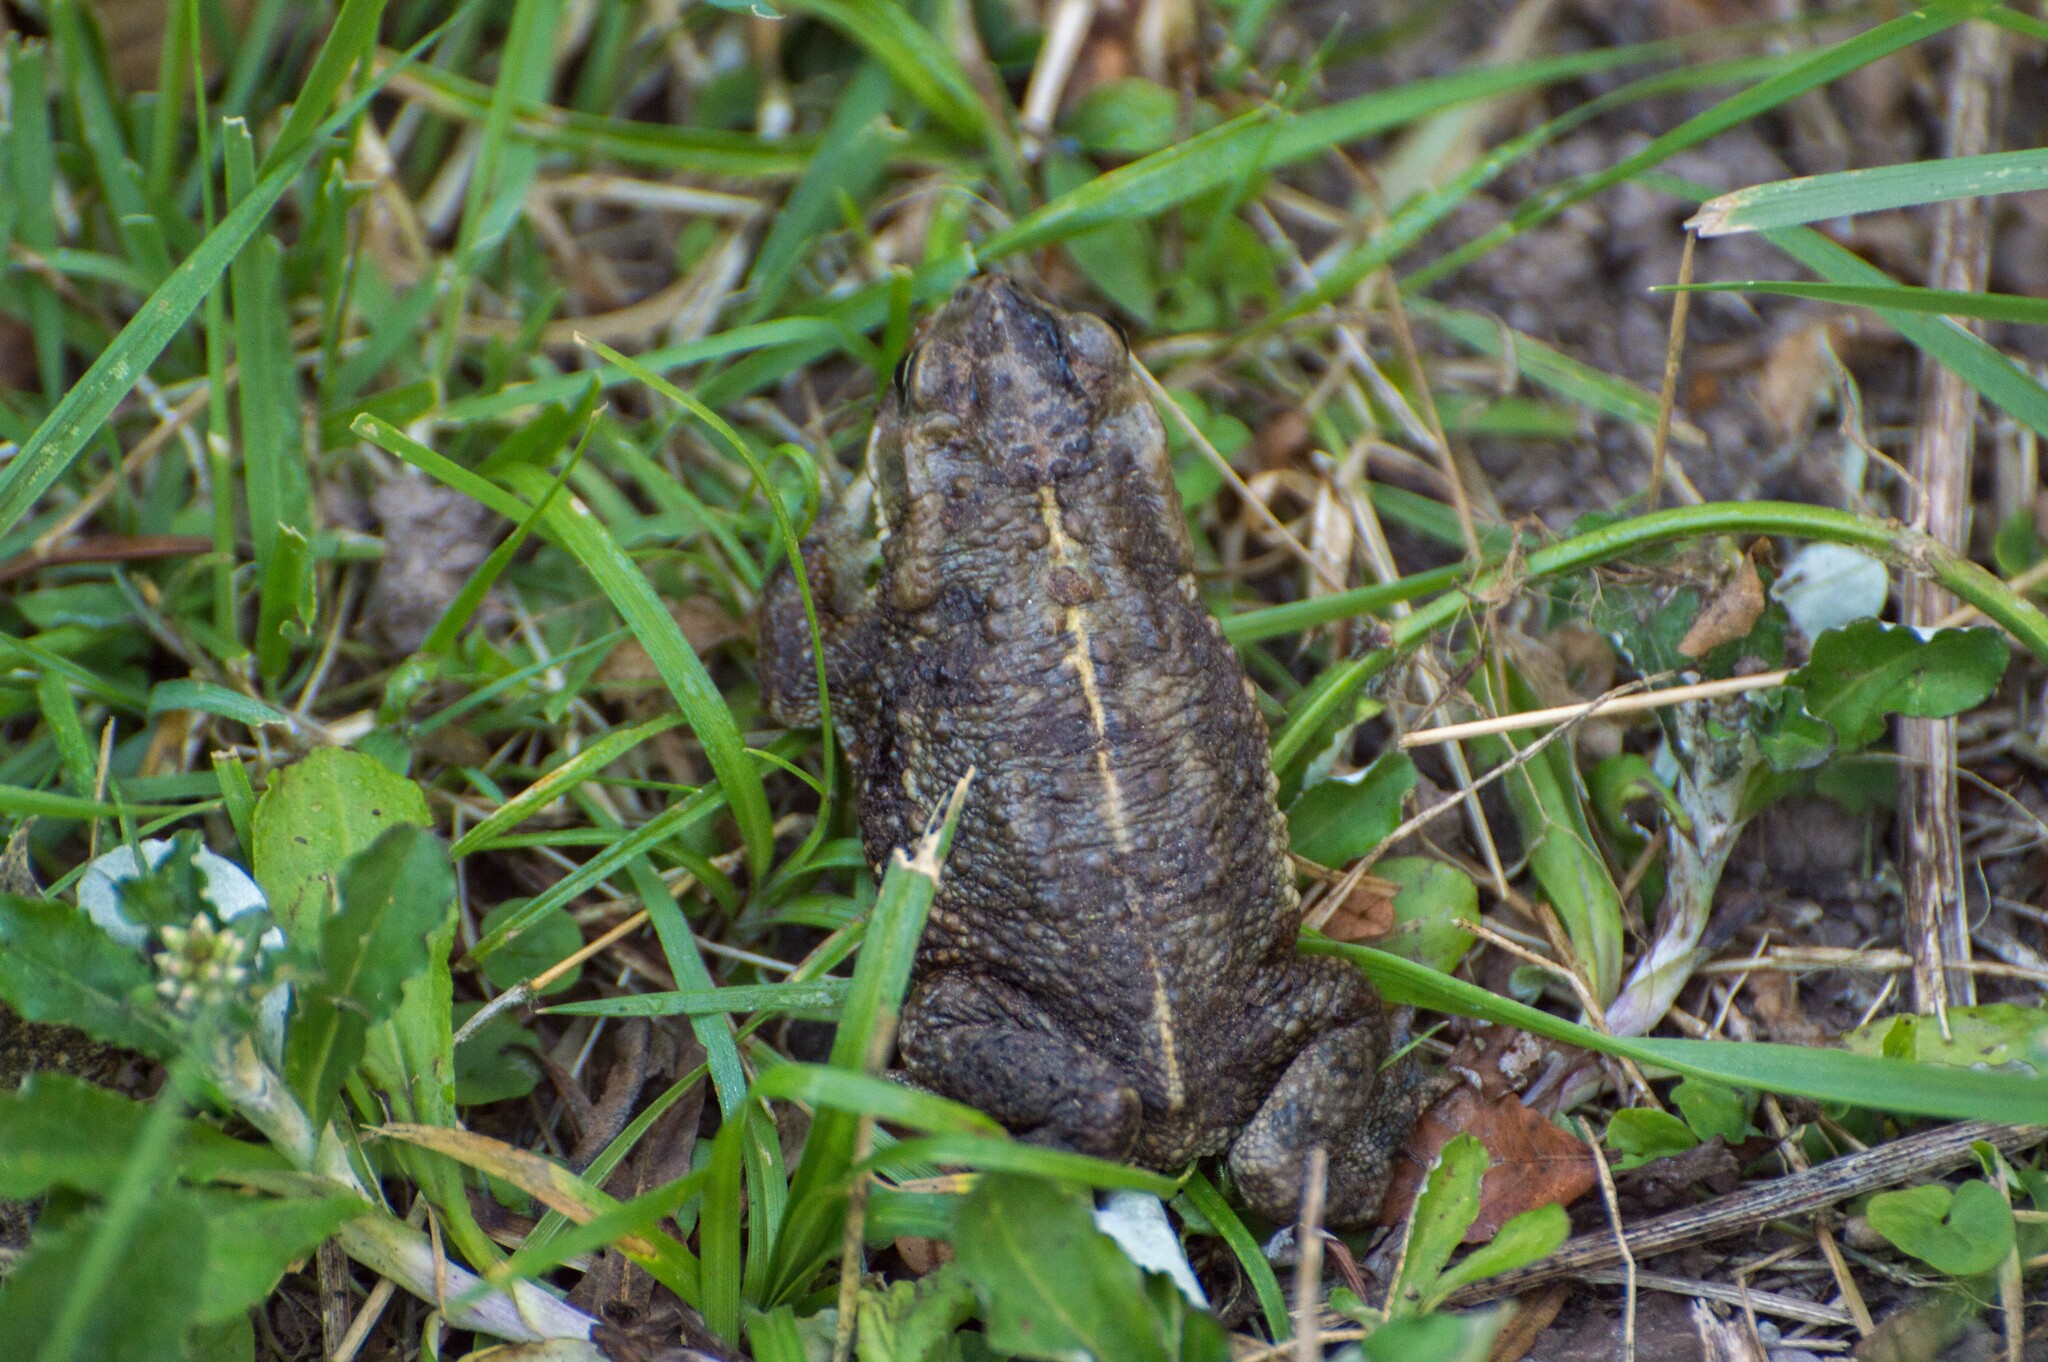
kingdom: Animalia
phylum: Chordata
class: Amphibia
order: Anura
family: Bufonidae
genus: Rhinella
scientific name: Rhinella dorbignyi
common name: D´orbigny’s toad
